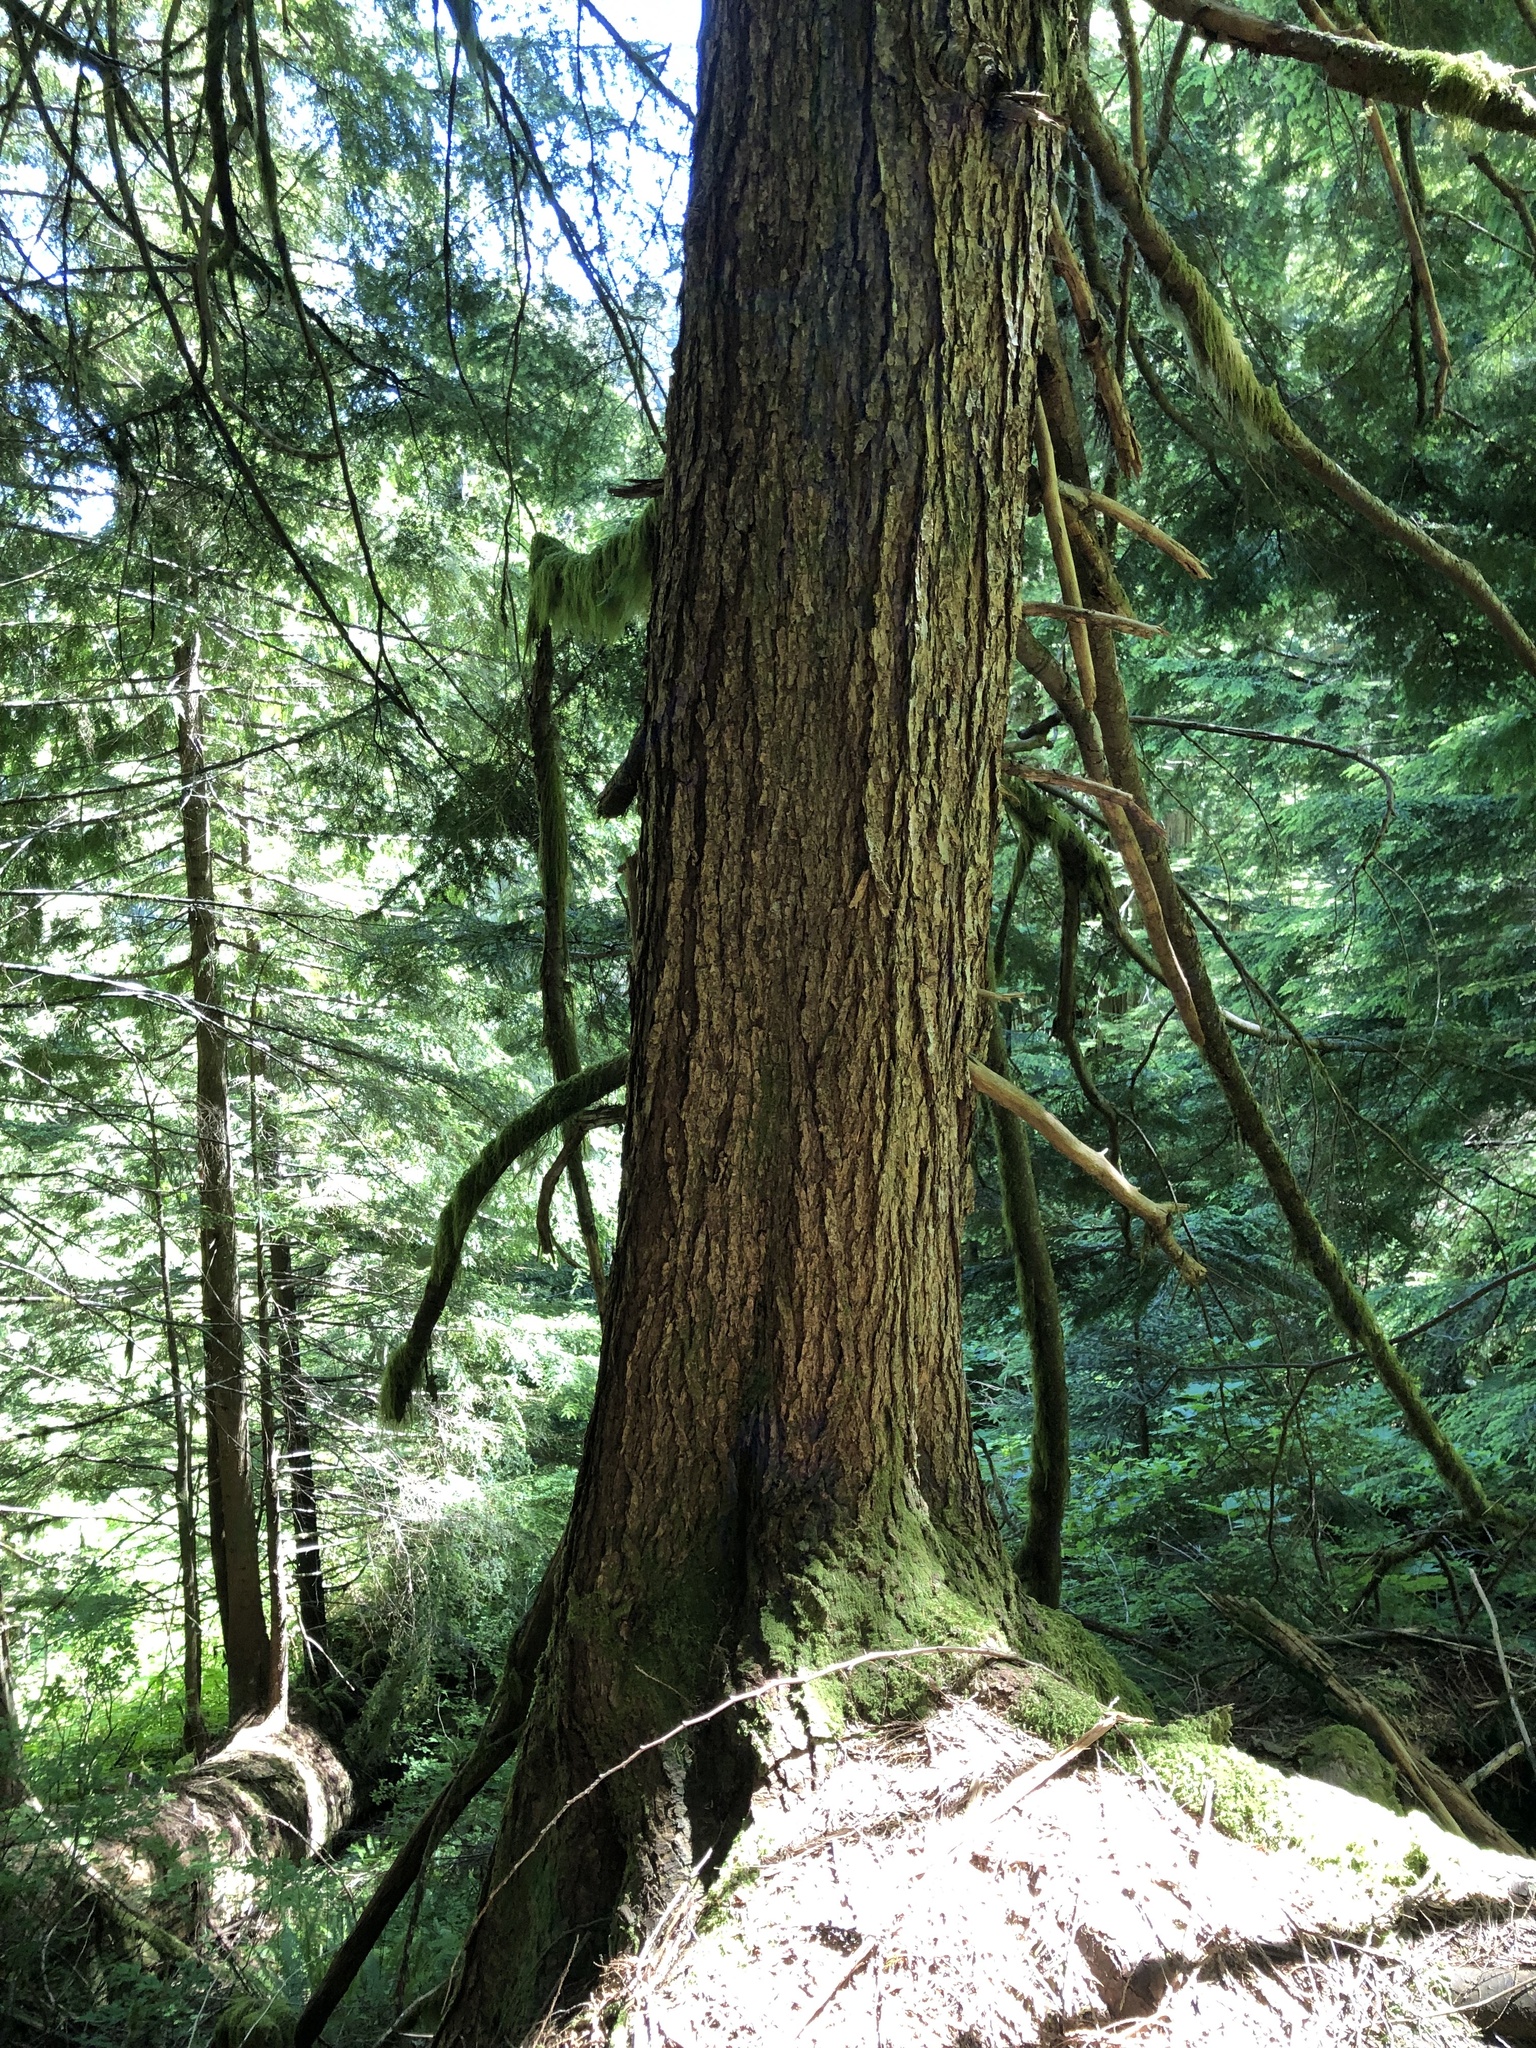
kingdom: Plantae
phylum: Tracheophyta
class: Pinopsida
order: Pinales
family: Pinaceae
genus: Tsuga
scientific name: Tsuga heterophylla
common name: Western hemlock
